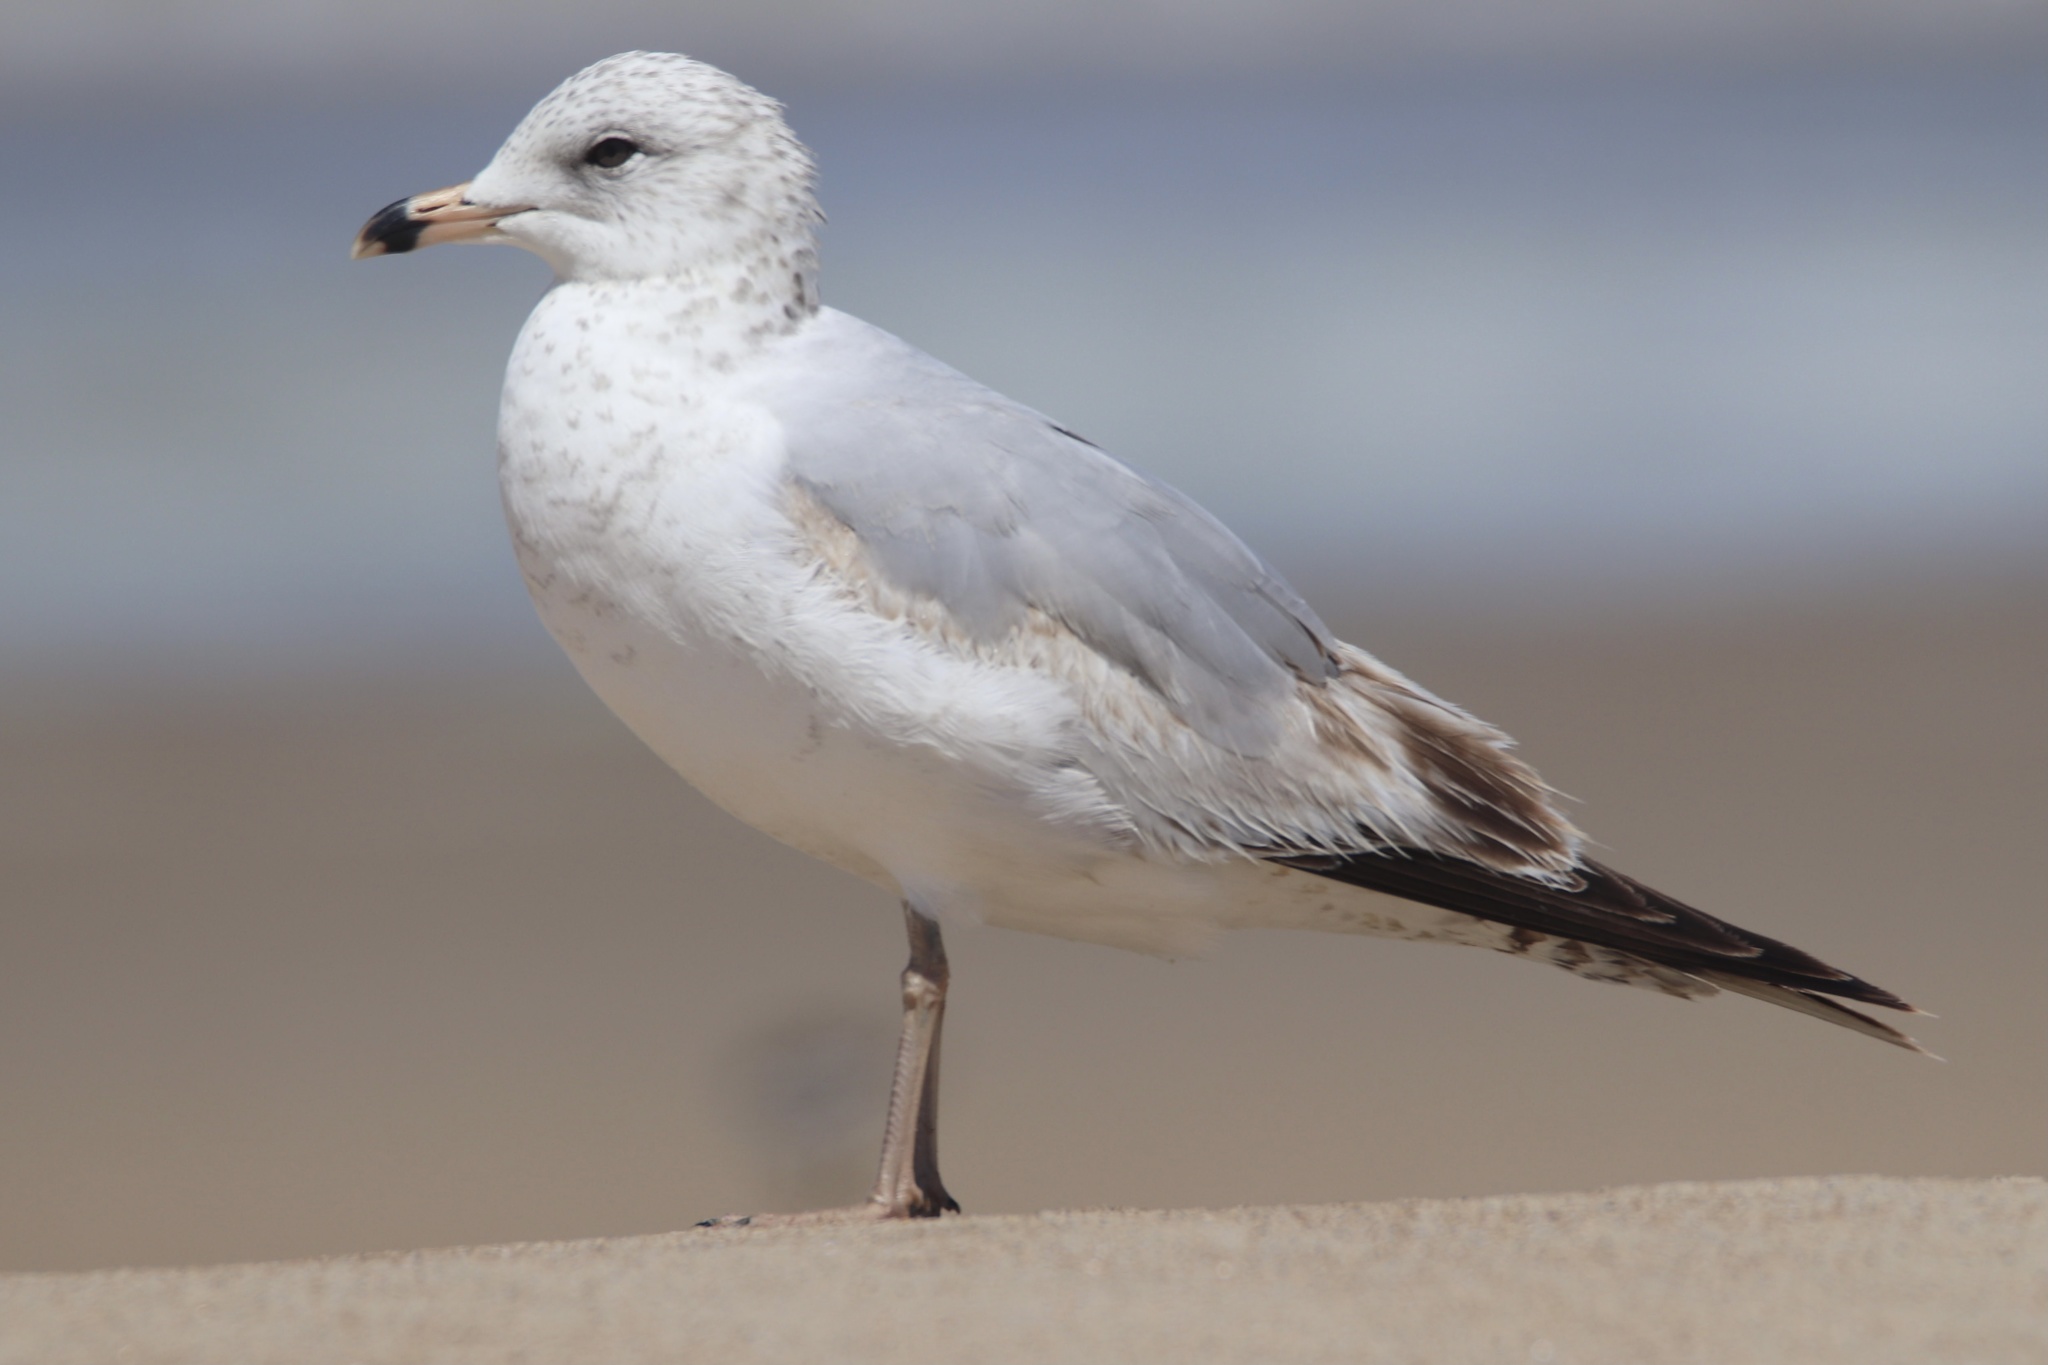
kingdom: Animalia
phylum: Chordata
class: Aves
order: Charadriiformes
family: Laridae
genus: Larus
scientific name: Larus delawarensis
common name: Ring-billed gull
